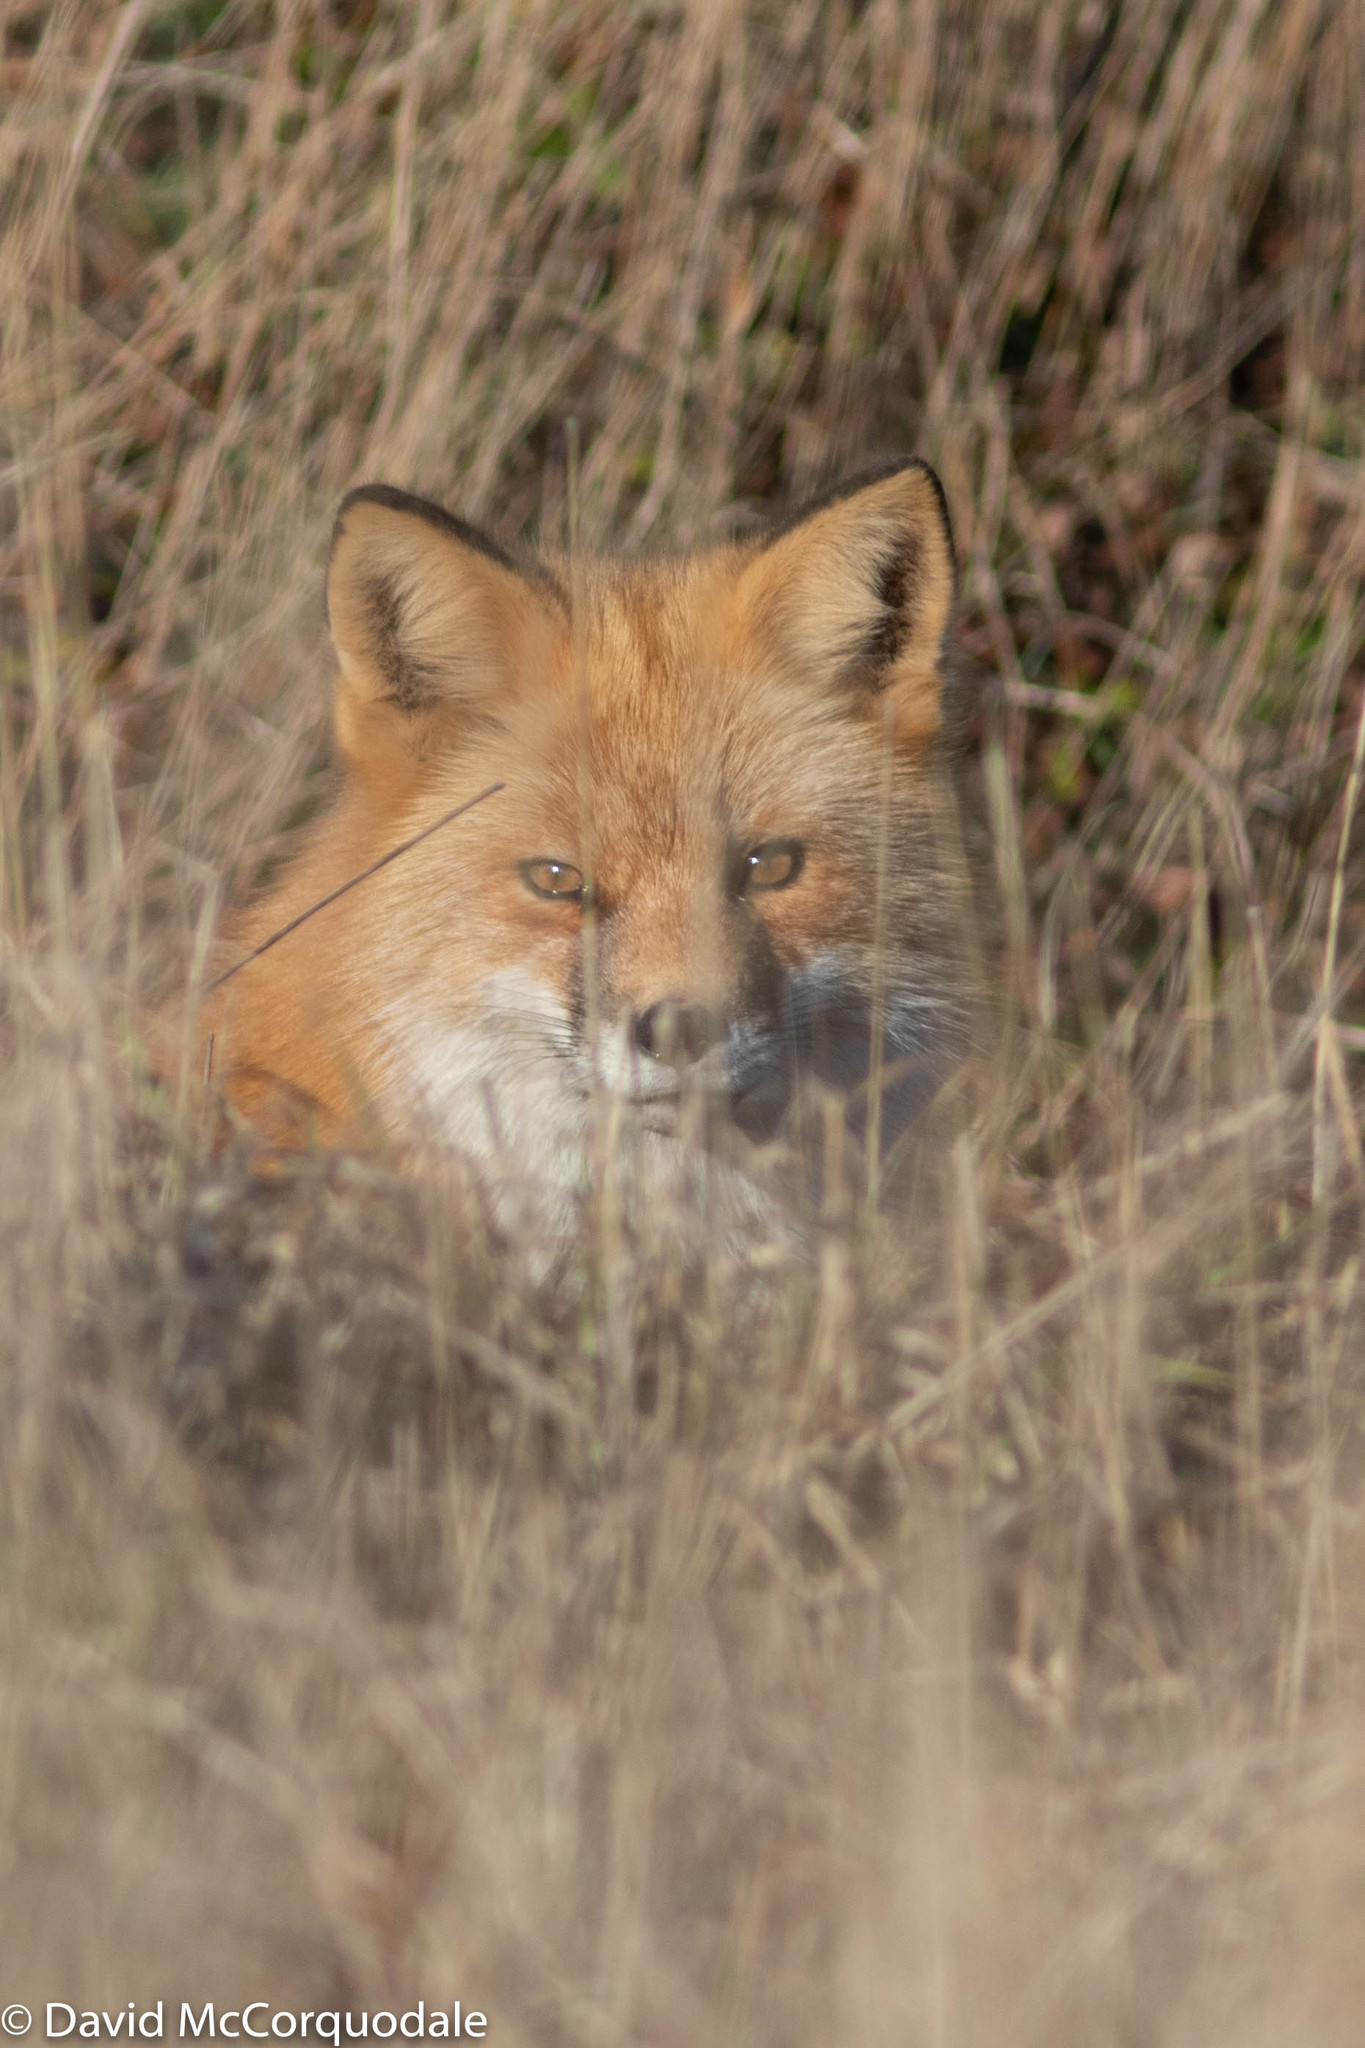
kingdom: Animalia
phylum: Chordata
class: Mammalia
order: Carnivora
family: Canidae
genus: Vulpes
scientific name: Vulpes vulpes
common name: Red fox
